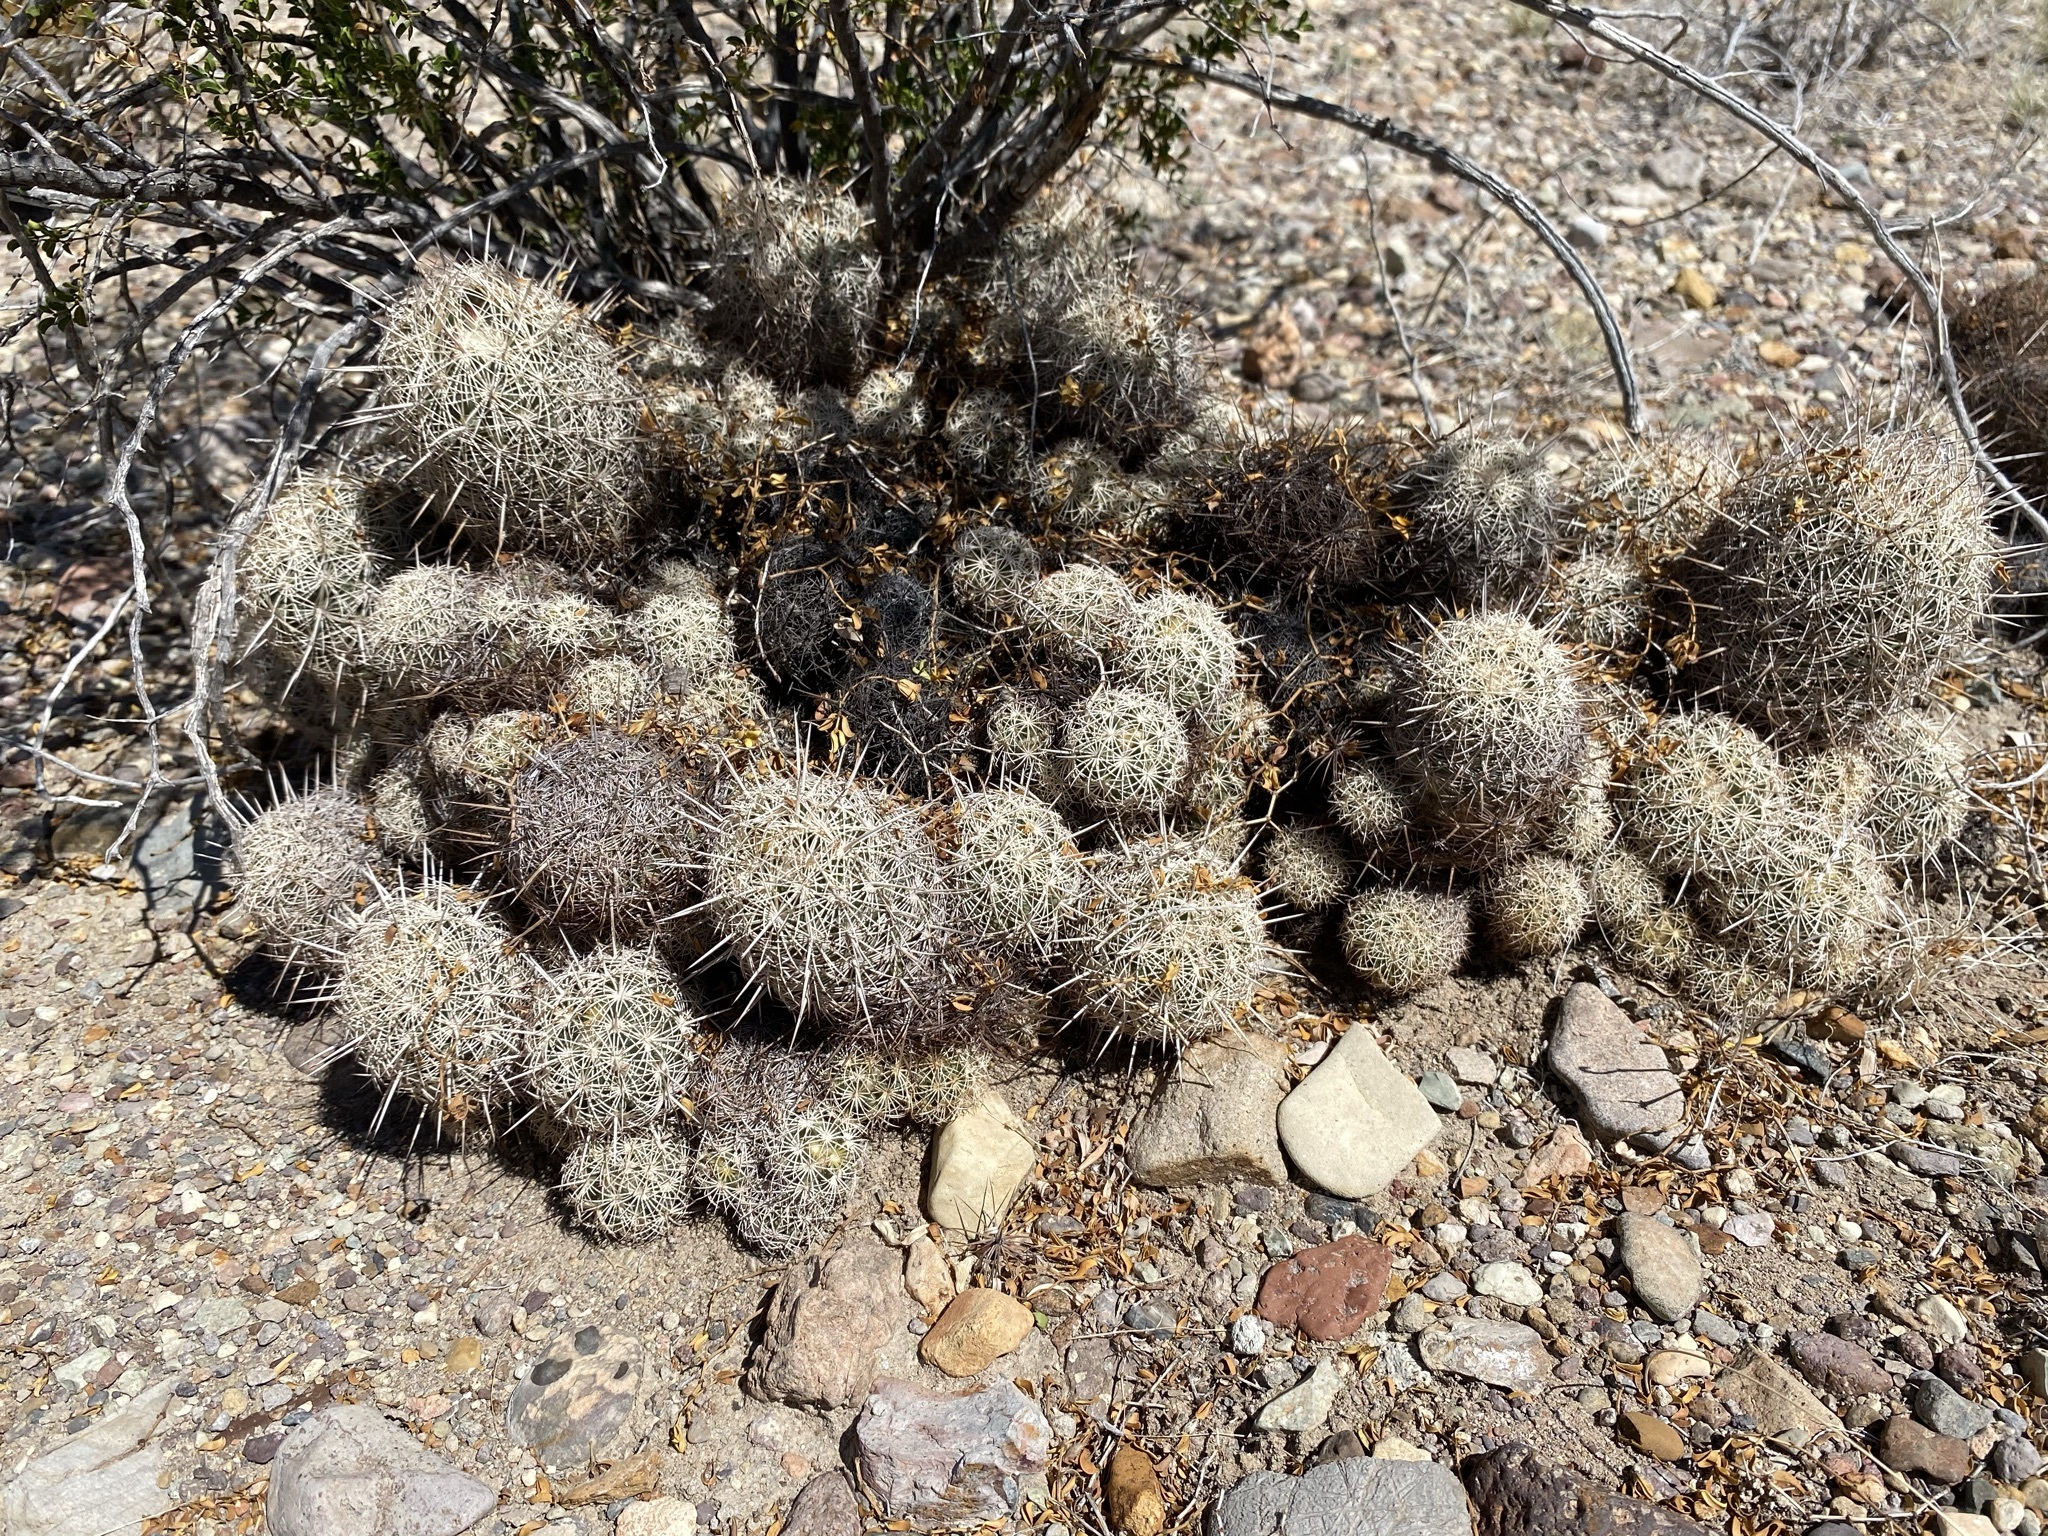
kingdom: Plantae
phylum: Tracheophyta
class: Magnoliopsida
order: Caryophyllales
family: Cactaceae
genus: Coryphantha
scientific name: Coryphantha echinus
